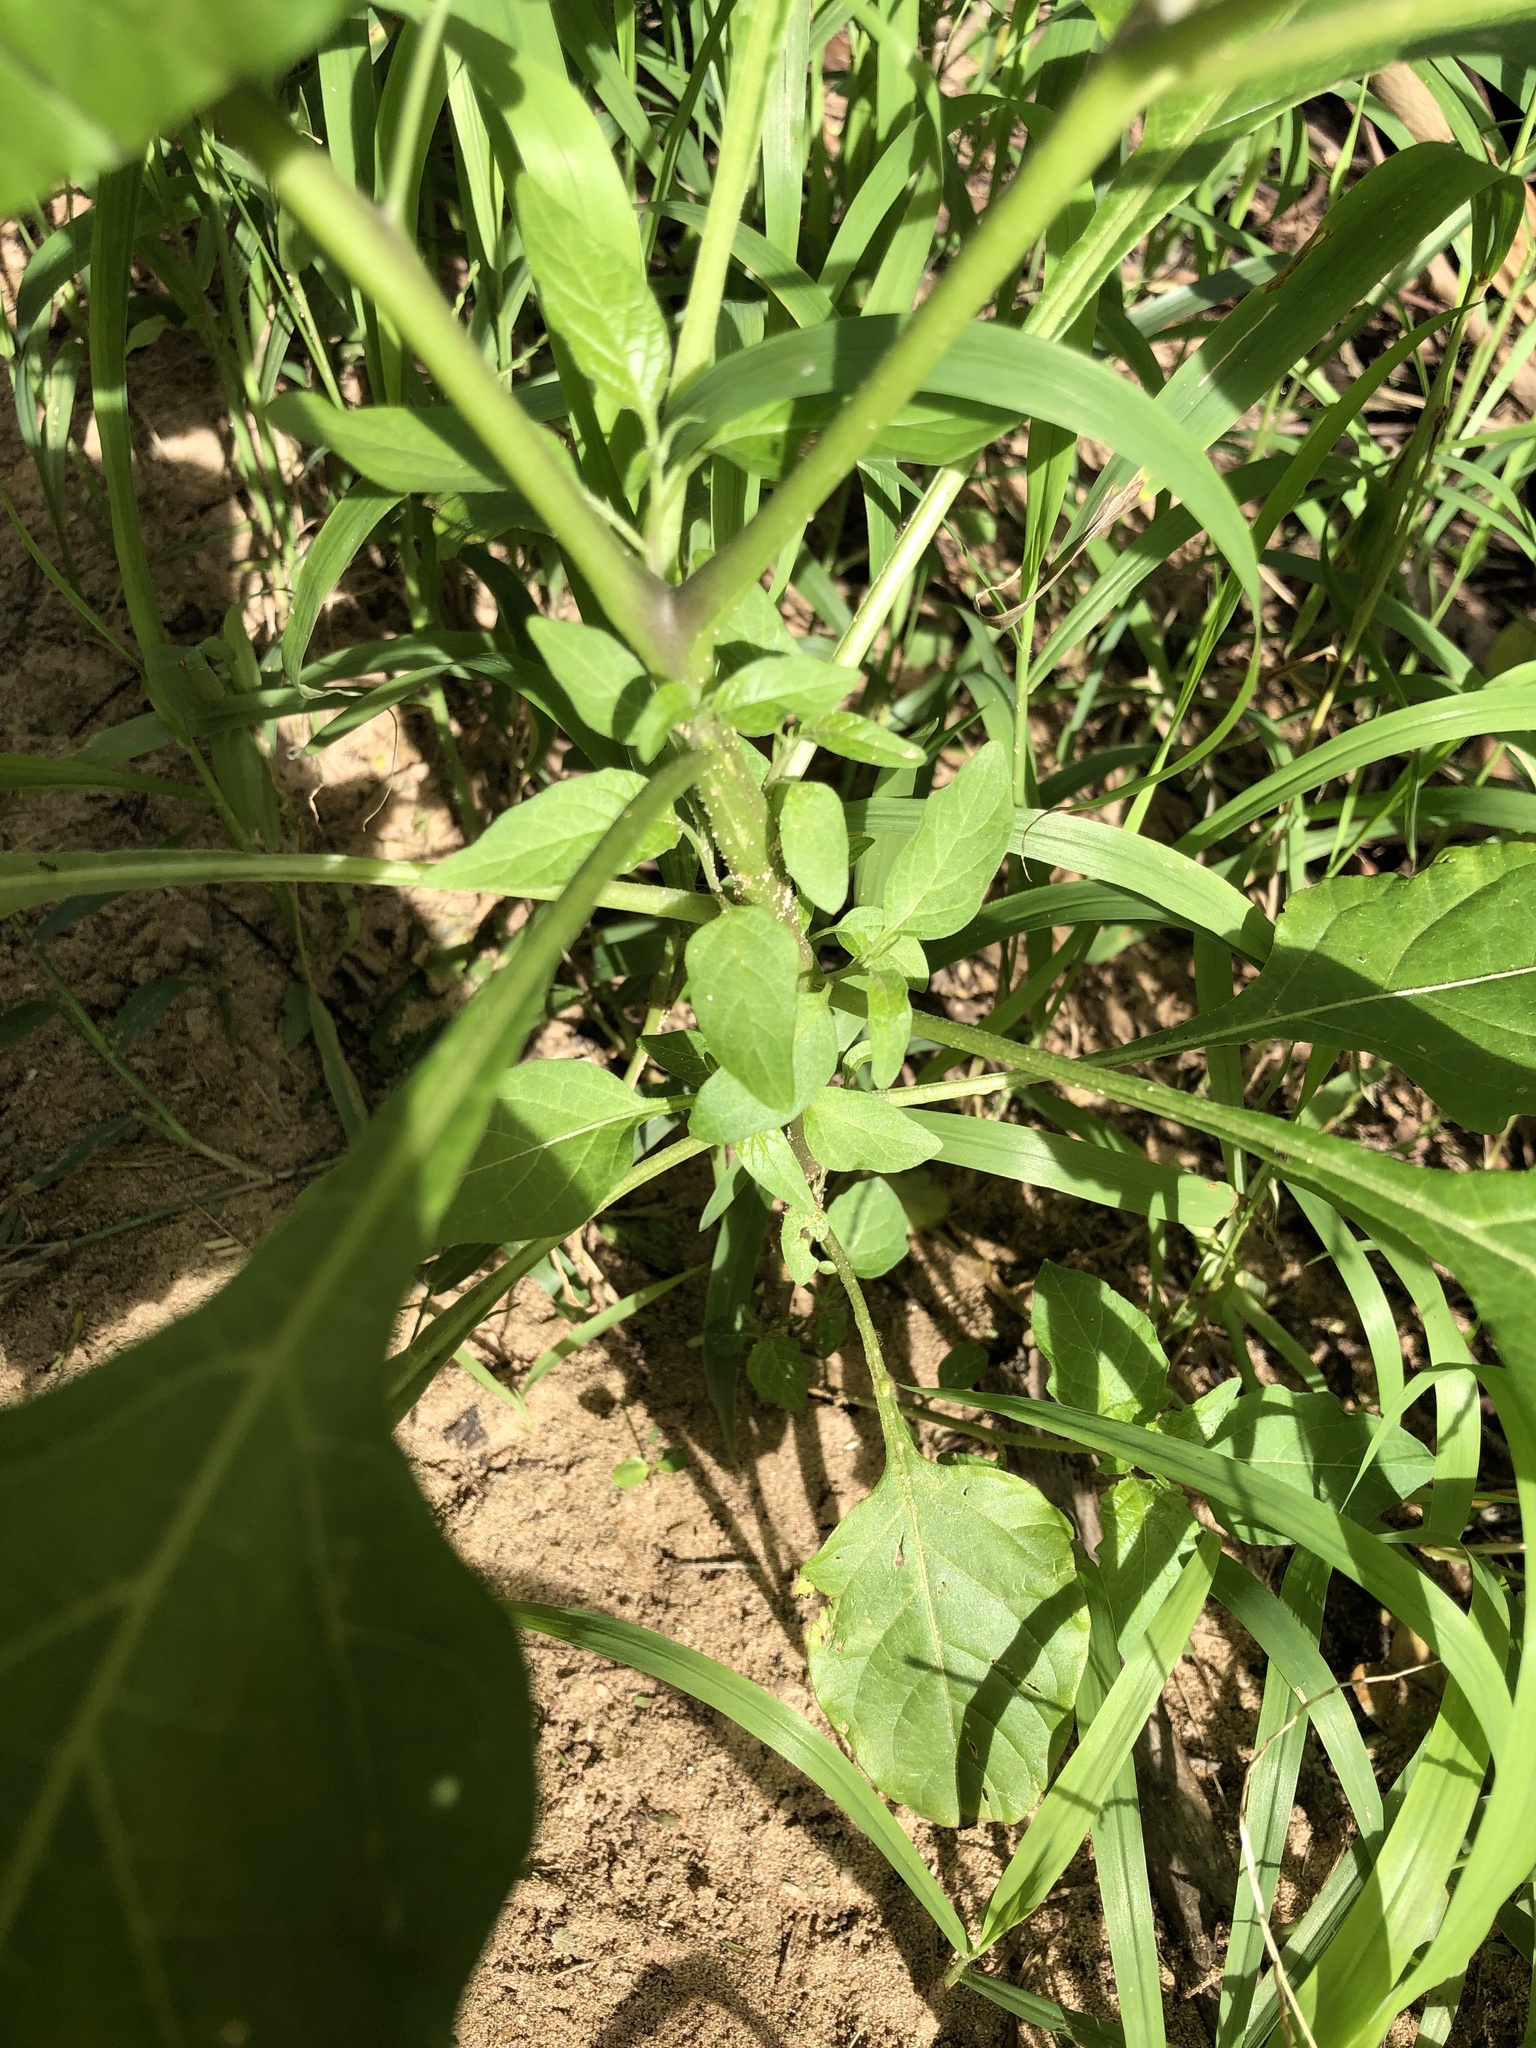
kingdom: Plantae
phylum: Tracheophyta
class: Magnoliopsida
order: Solanales
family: Solanaceae
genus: Solanum
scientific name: Solanum americanum
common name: American black nightshade
